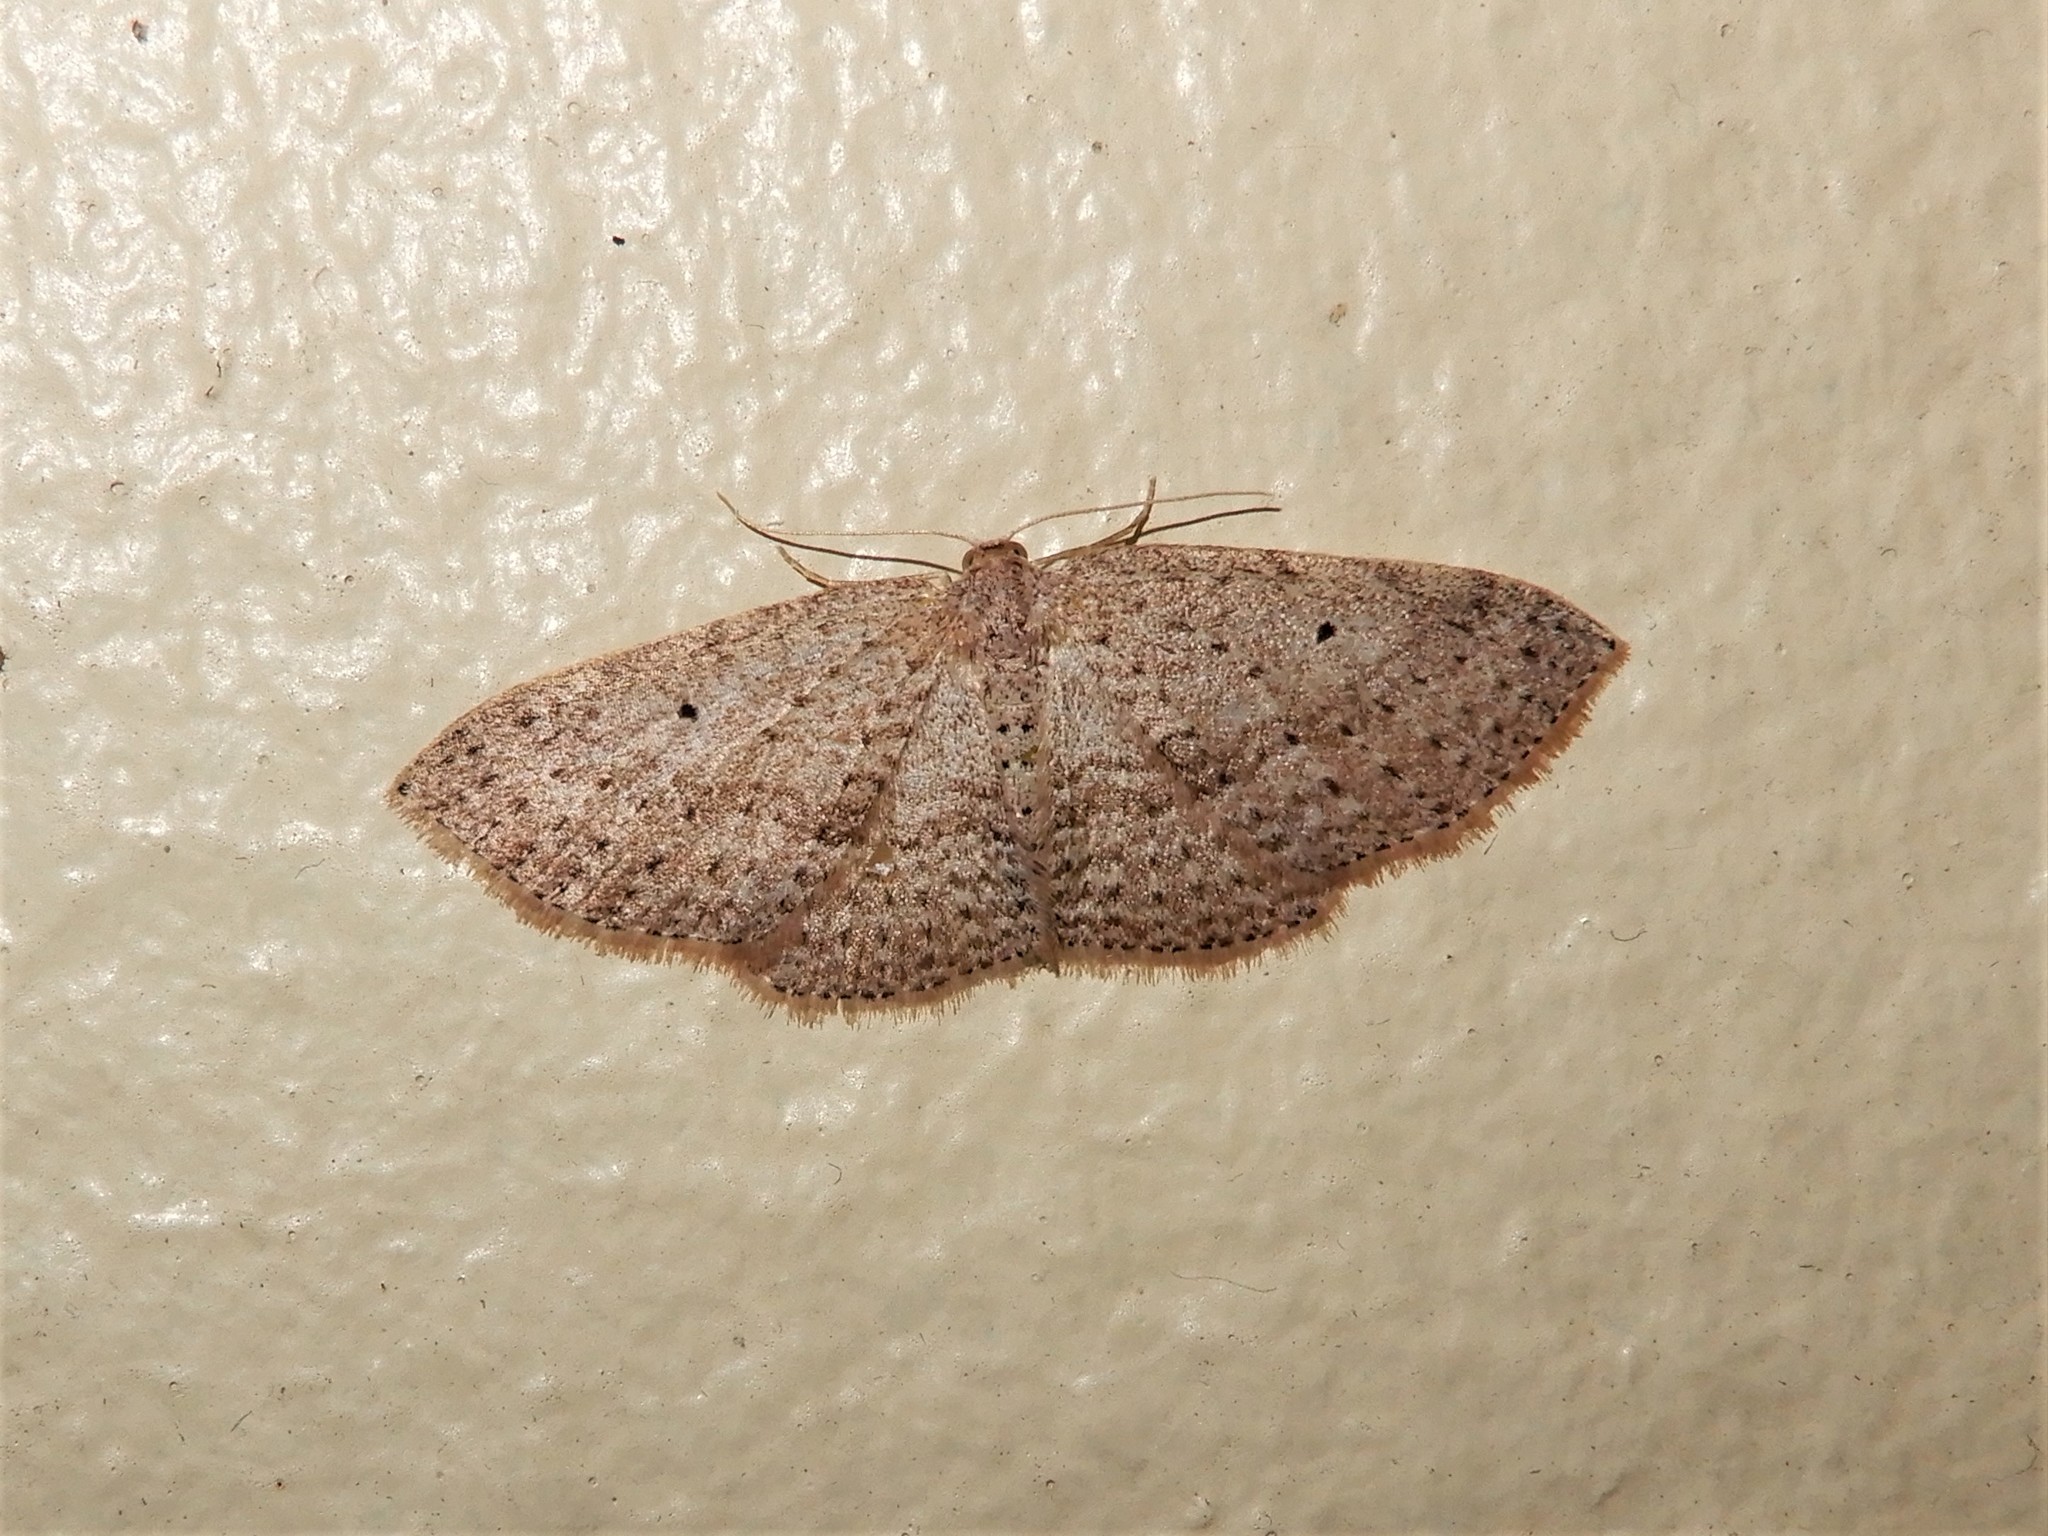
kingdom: Animalia
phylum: Arthropoda
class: Insecta
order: Lepidoptera
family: Geometridae
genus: Poecilasthena
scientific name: Poecilasthena schistaria
